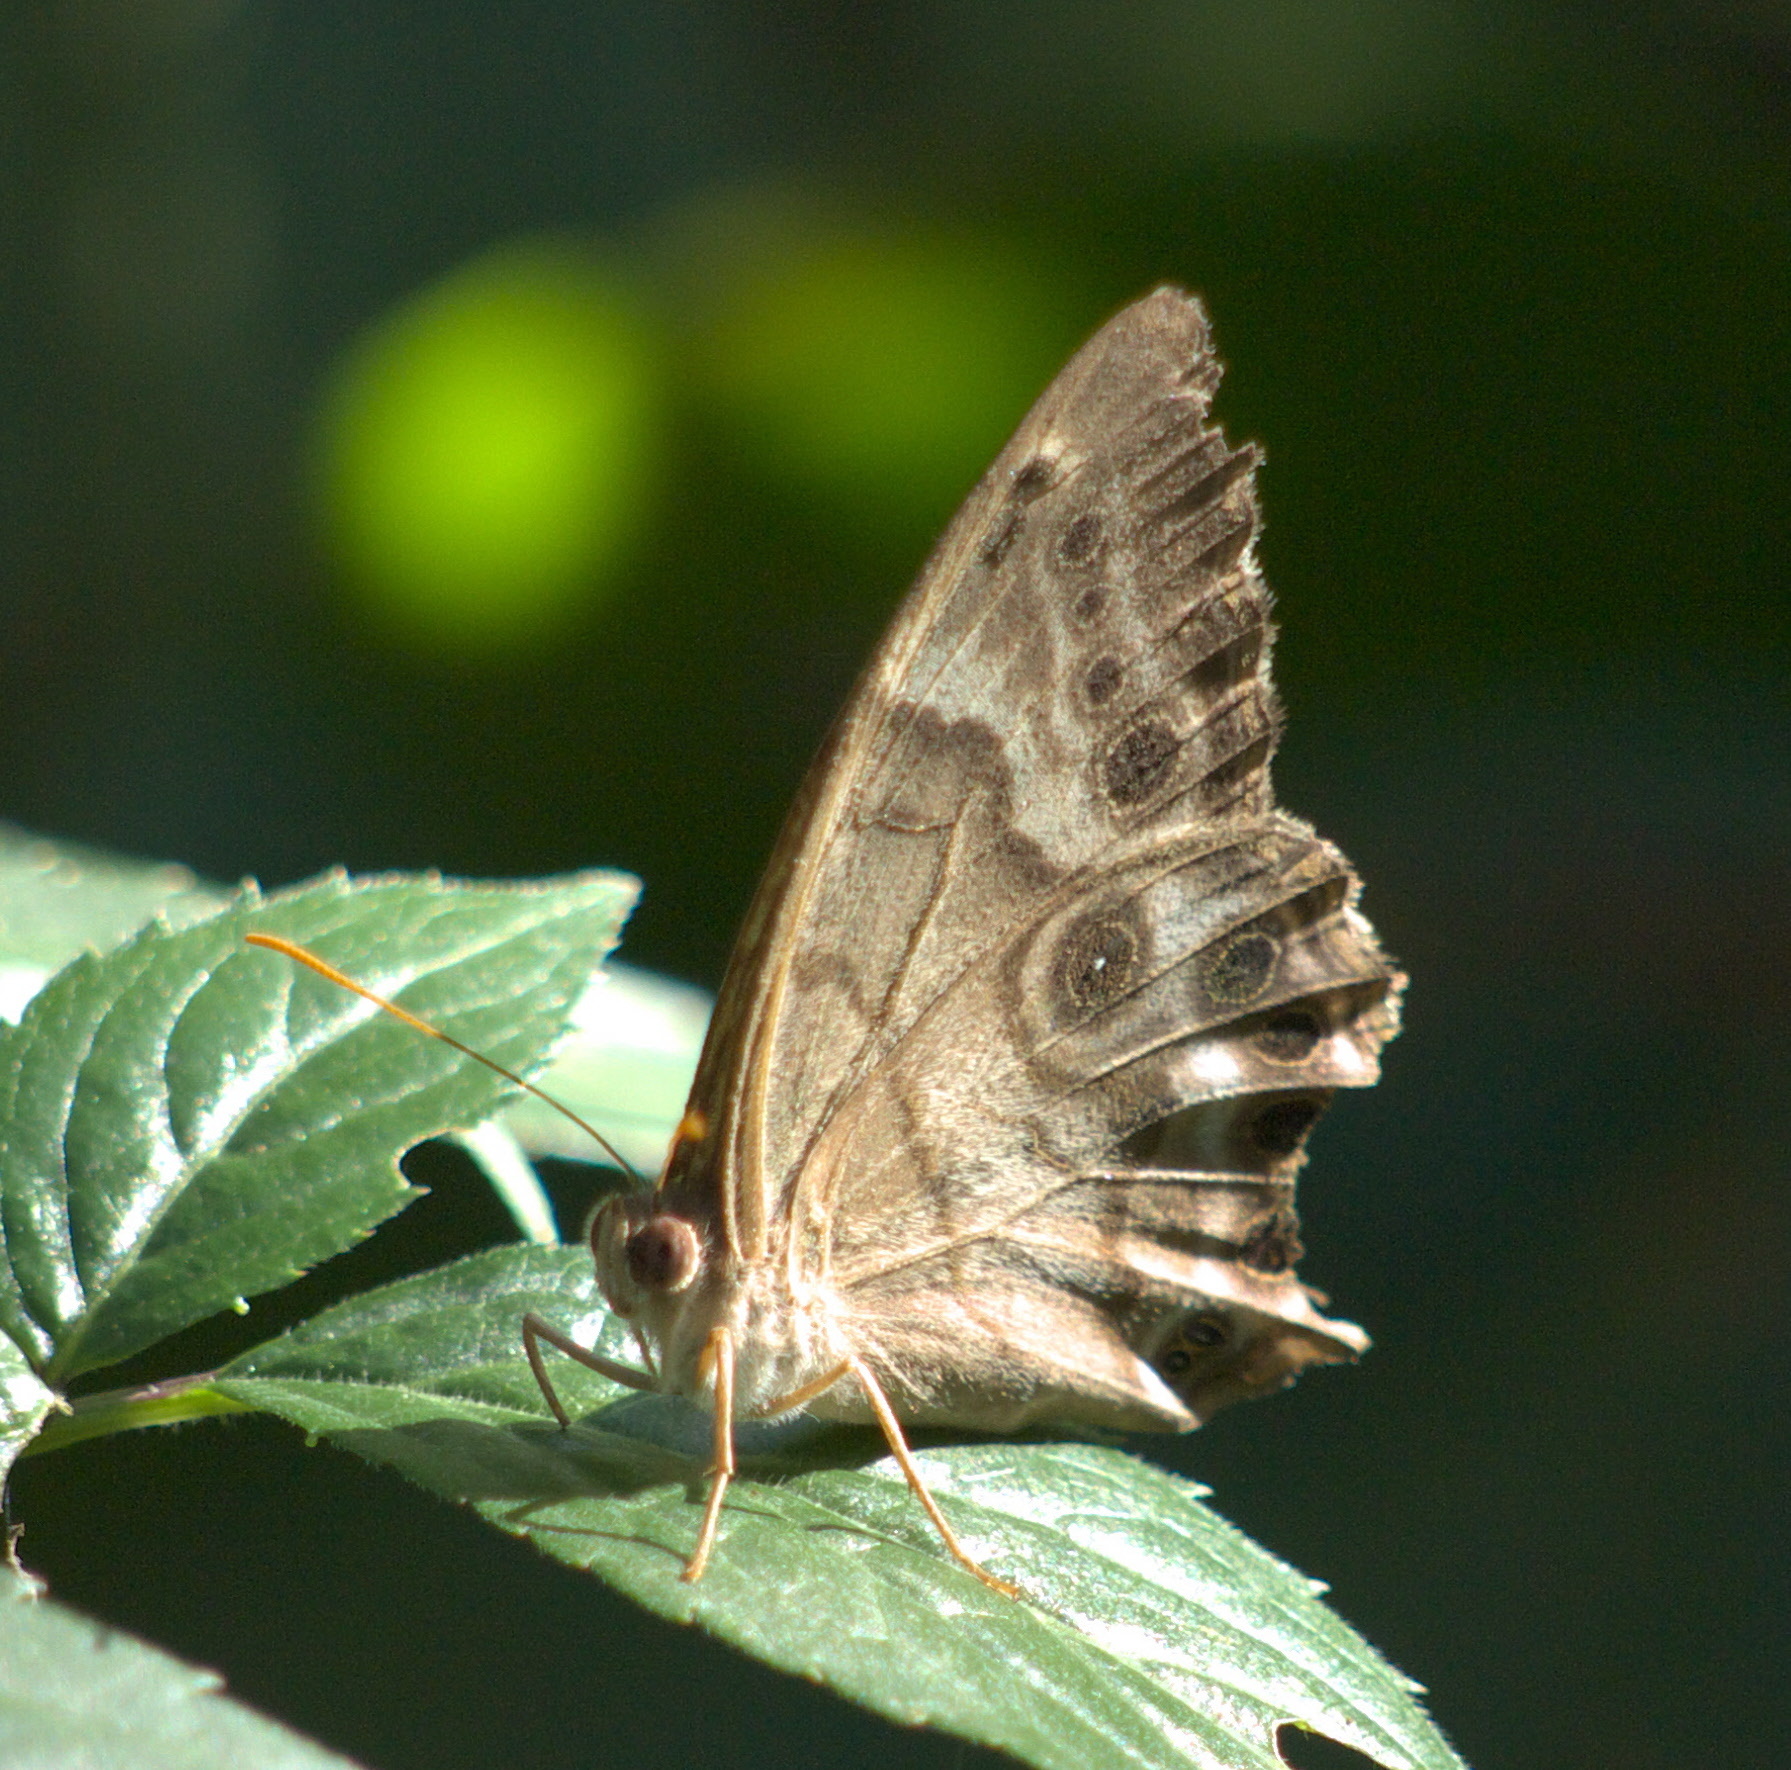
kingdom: Animalia
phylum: Arthropoda
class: Insecta
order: Lepidoptera
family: Nymphalidae
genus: Enodia
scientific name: Enodia portlandia
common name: Southern pearly-eye
